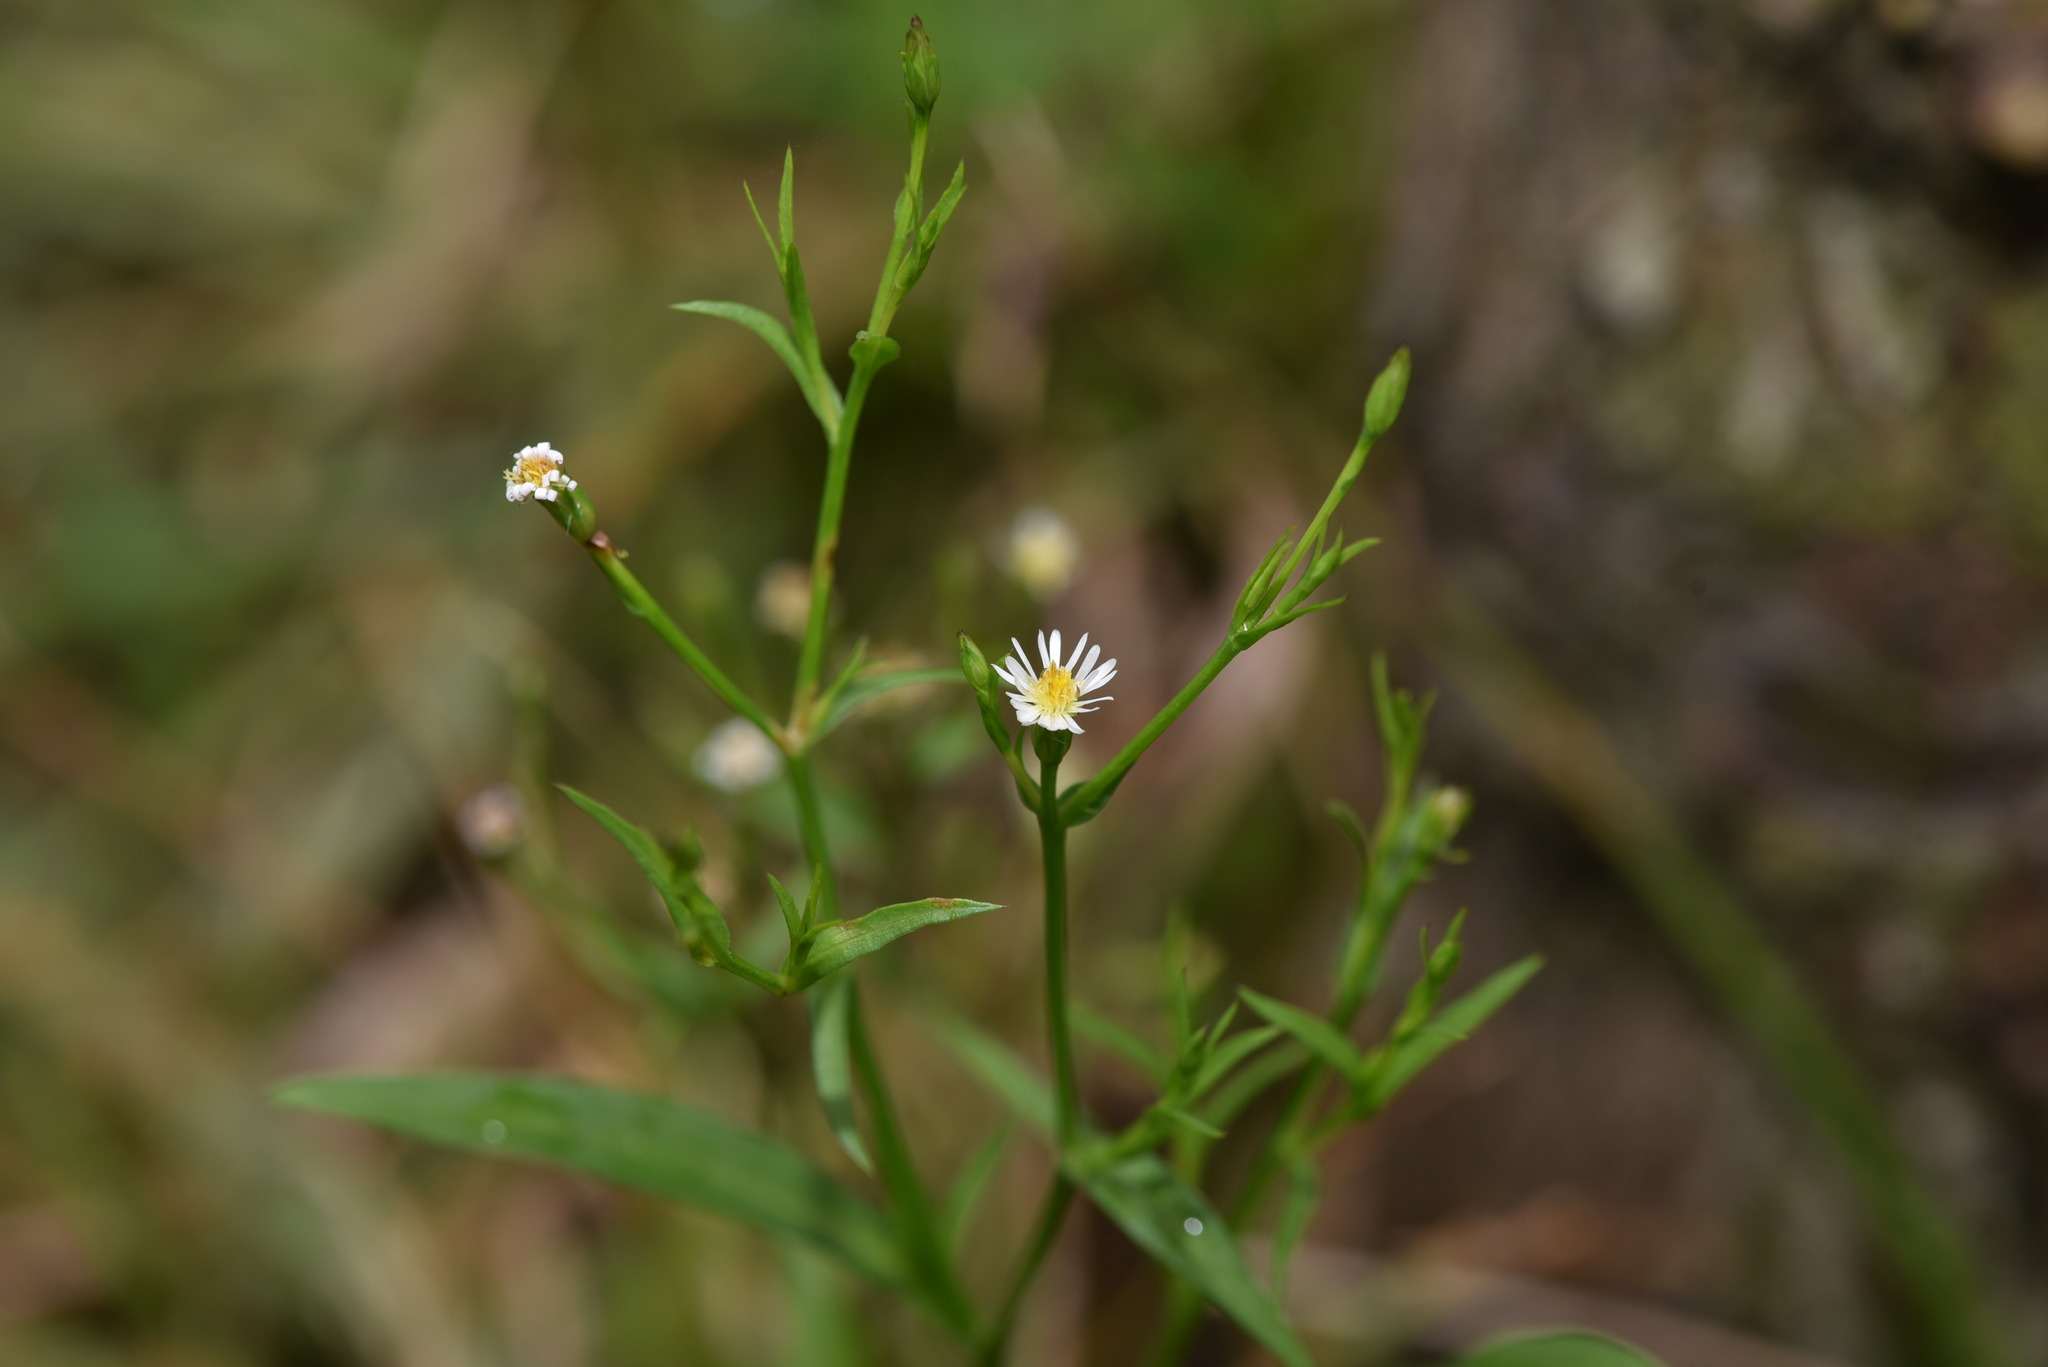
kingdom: Plantae
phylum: Tracheophyta
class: Magnoliopsida
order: Asterales
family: Asteraceae
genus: Symphyotrichum
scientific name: Symphyotrichum subulatum
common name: Annual saltmarsh aster
